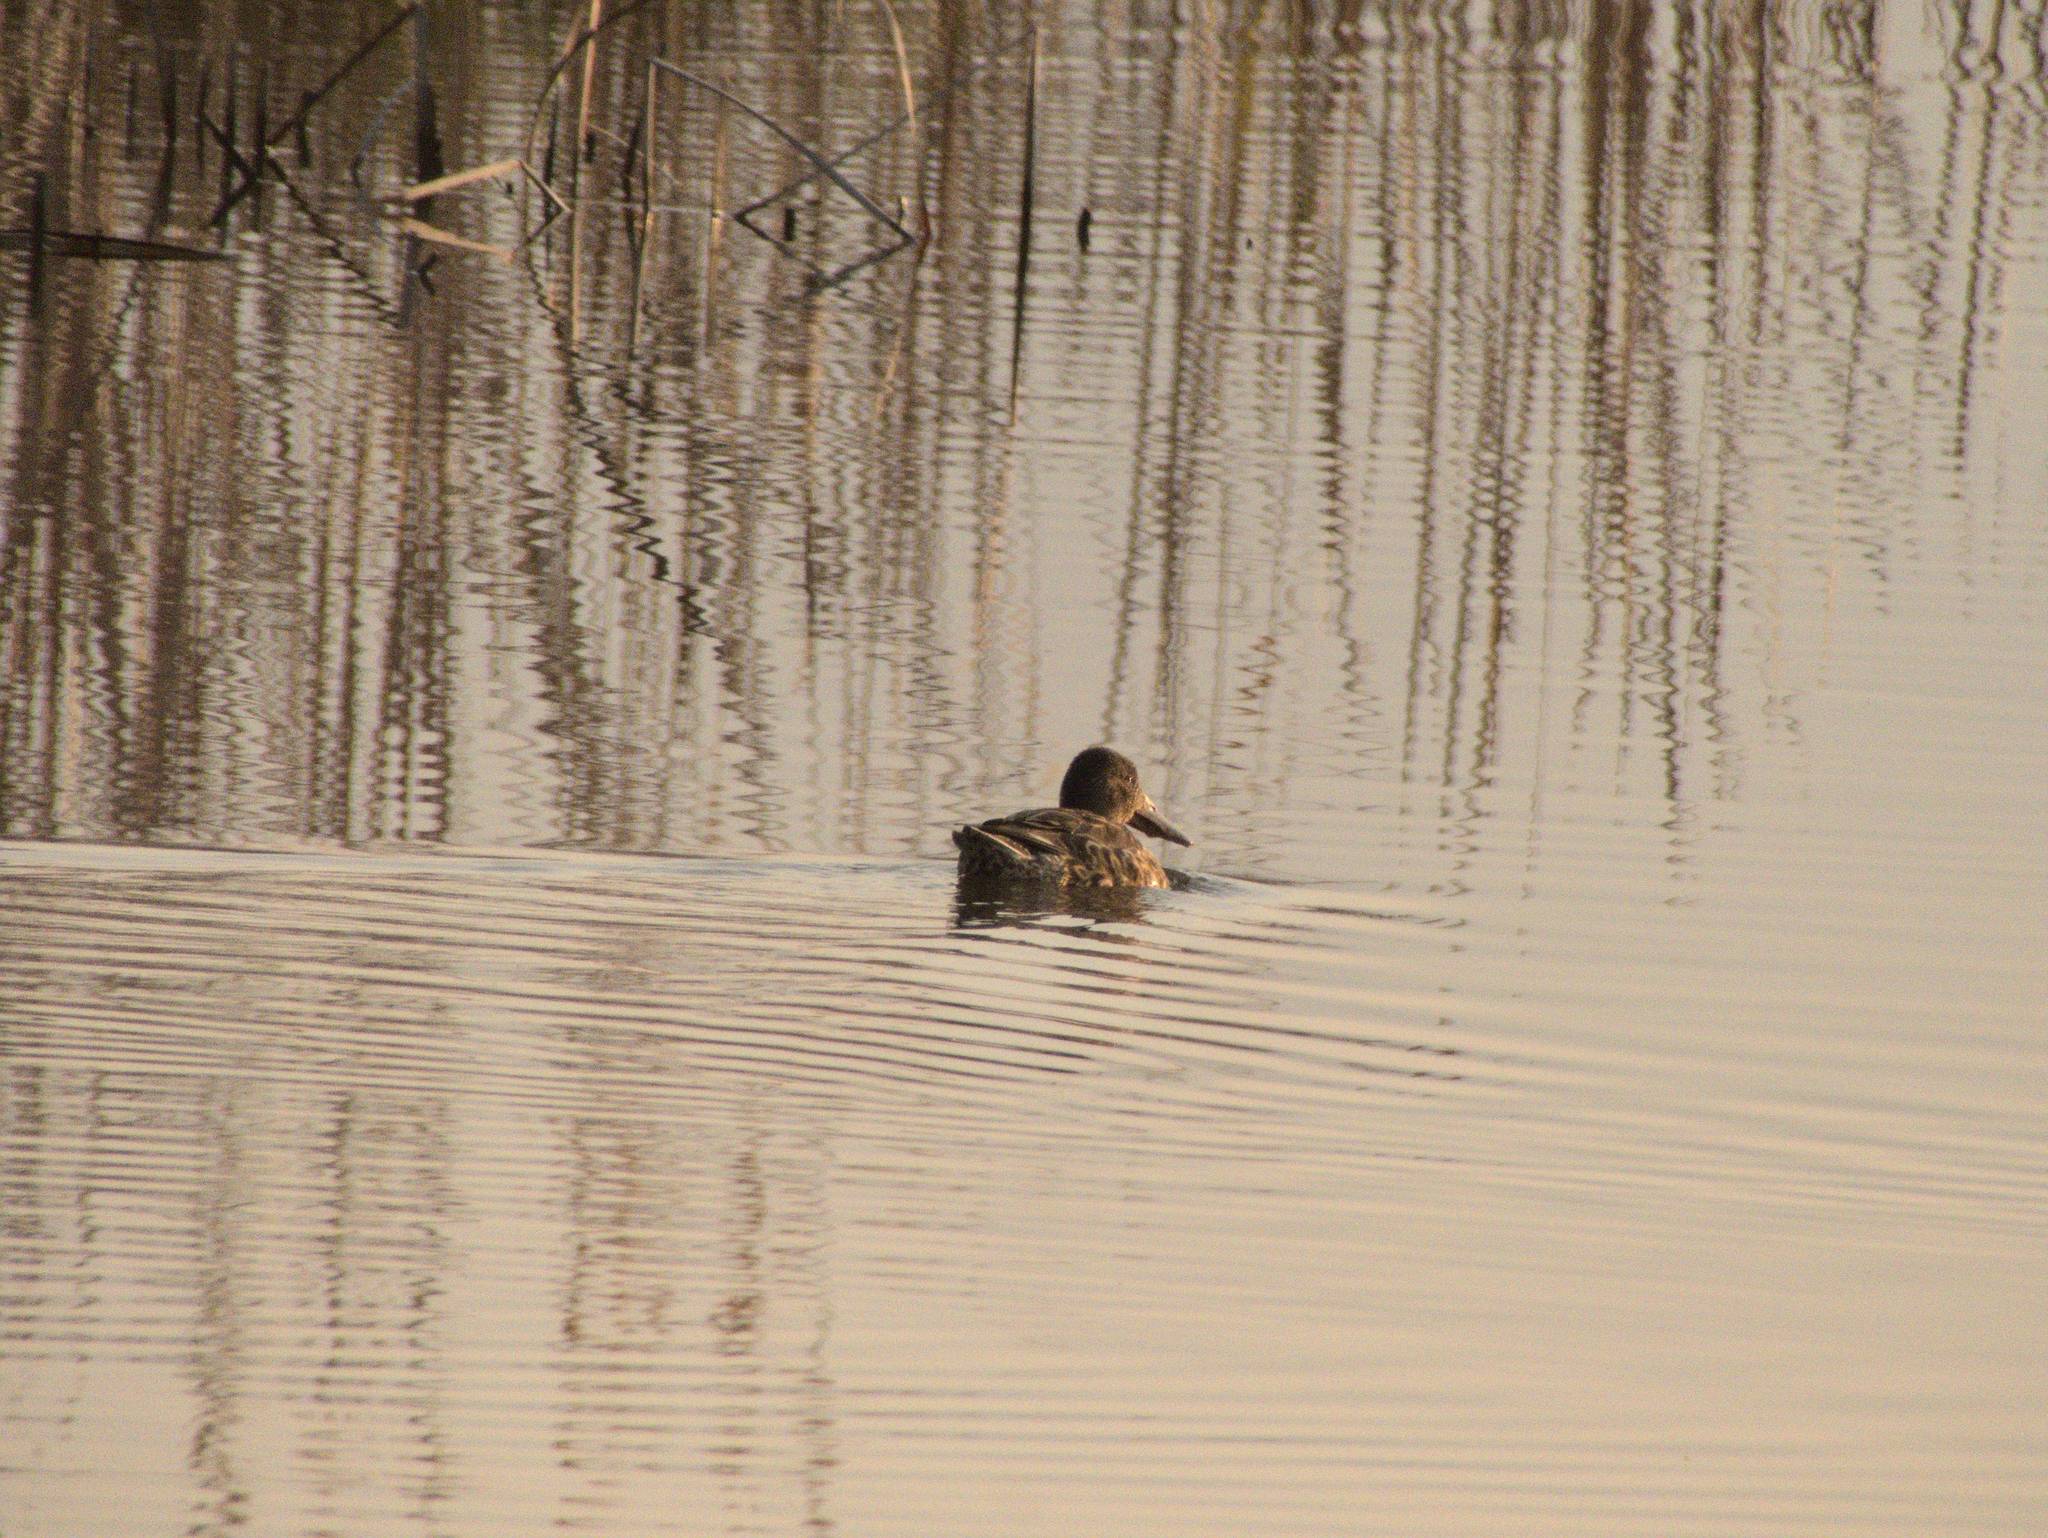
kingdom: Animalia
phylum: Chordata
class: Aves
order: Anseriformes
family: Anatidae
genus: Spatula
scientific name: Spatula clypeata
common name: Northern shoveler
